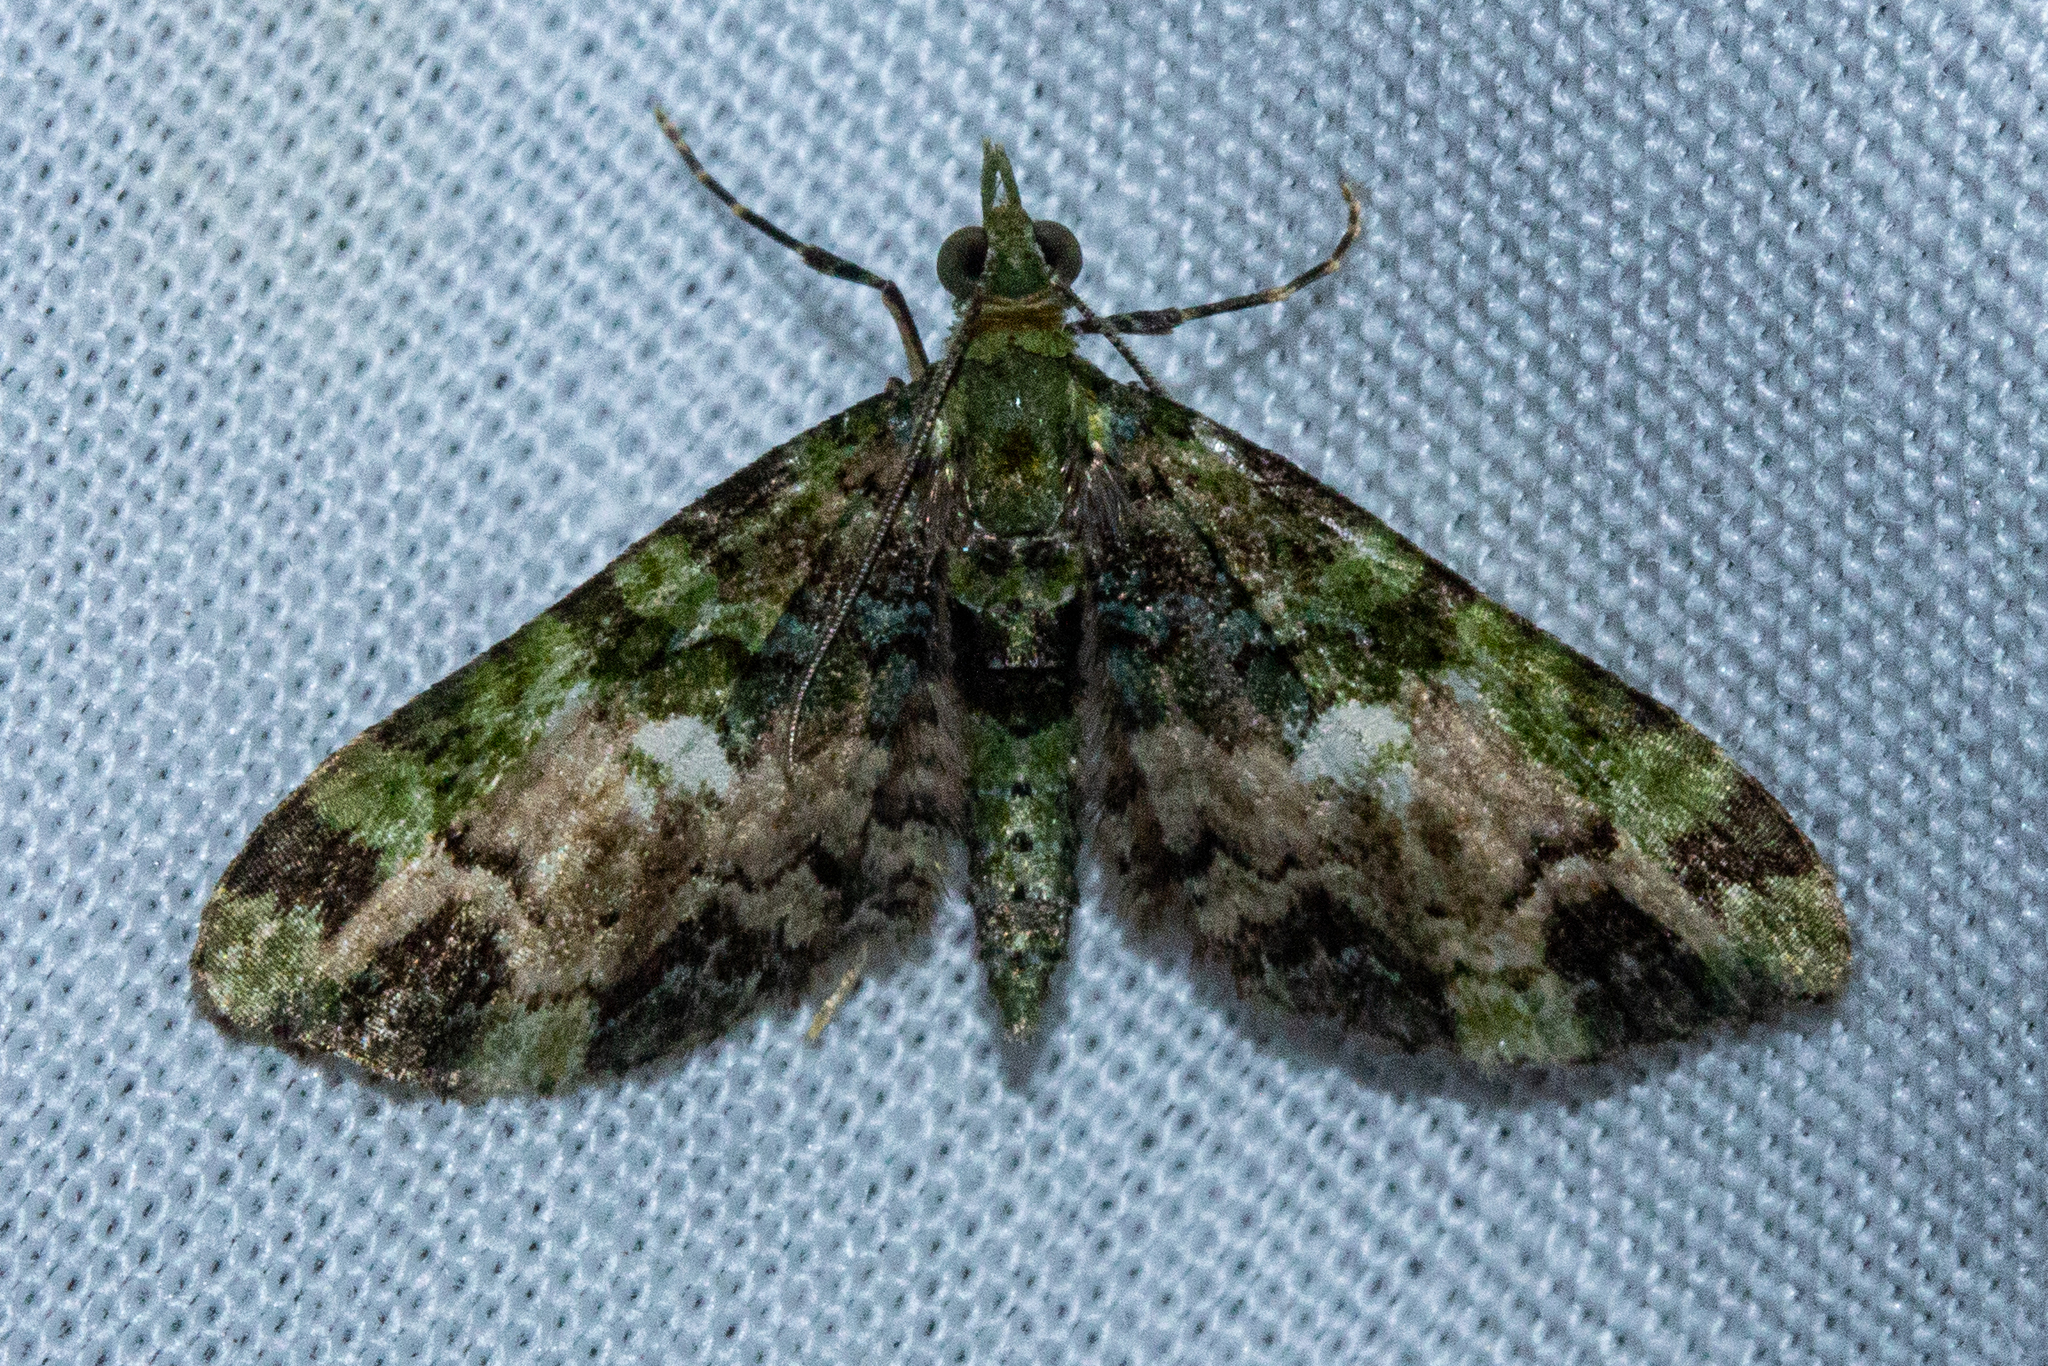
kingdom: Animalia
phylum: Arthropoda
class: Insecta
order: Lepidoptera
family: Geometridae
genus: Pasiphila
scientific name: Pasiphila malachita
